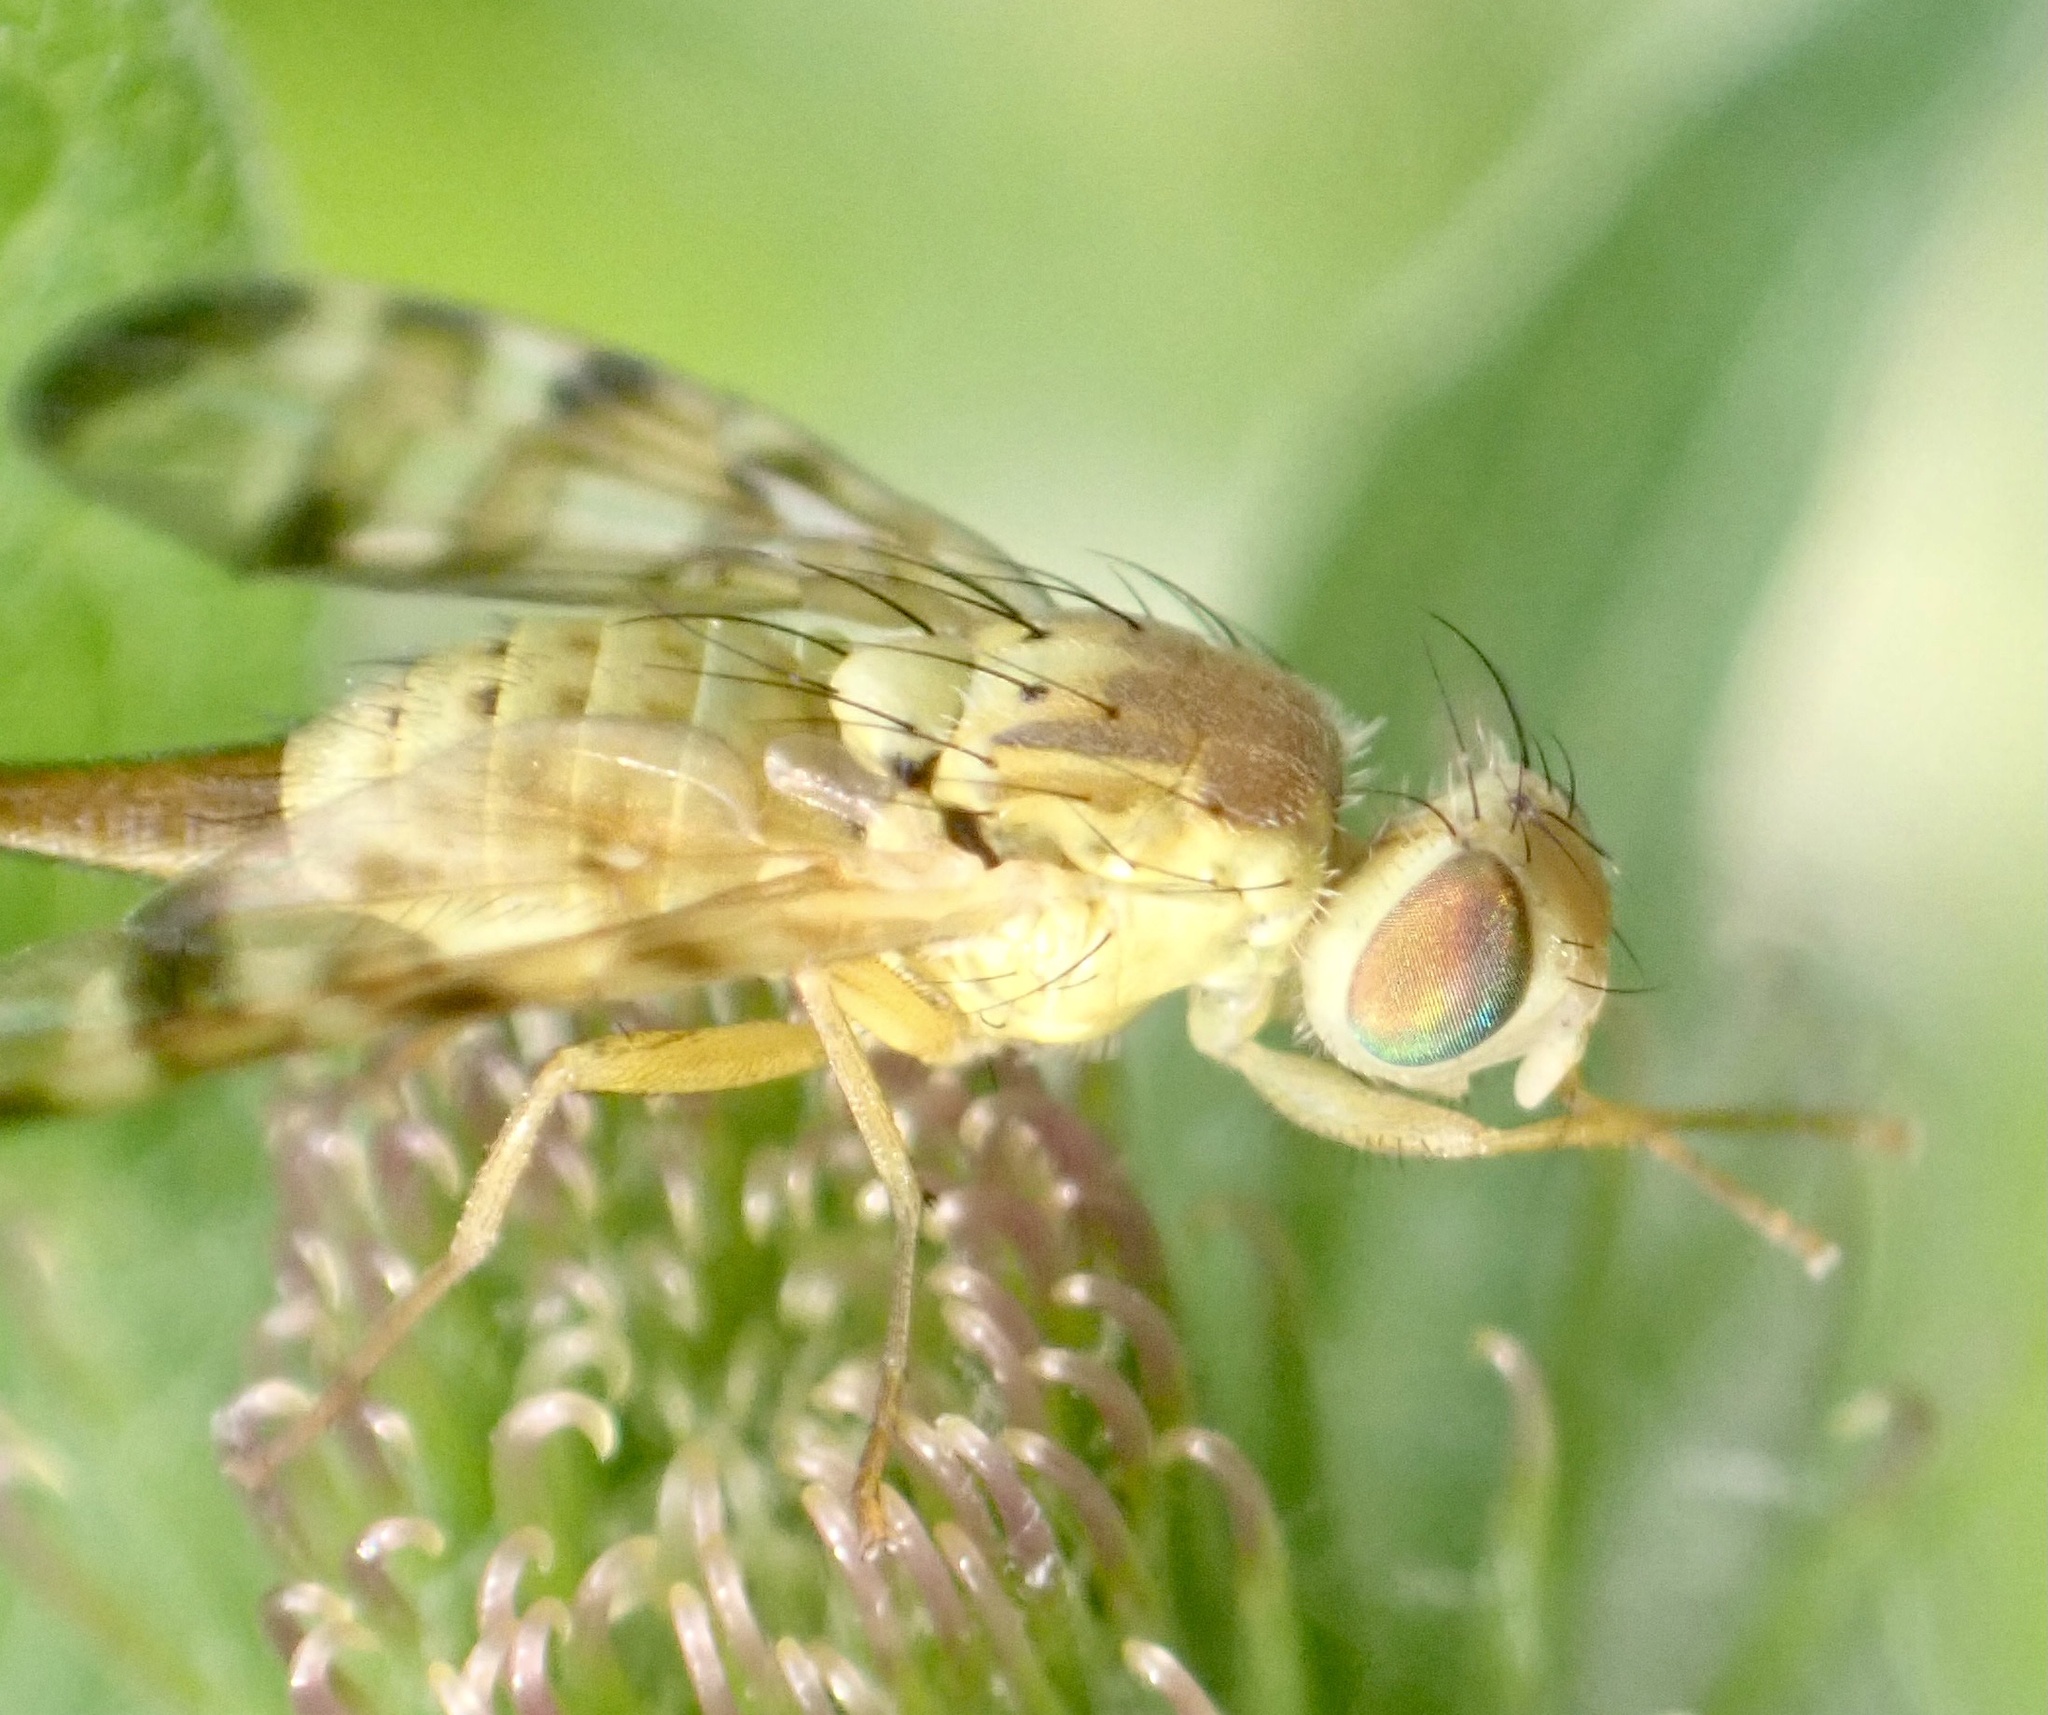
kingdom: Animalia
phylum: Arthropoda
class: Insecta
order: Diptera
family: Tephritidae
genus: Terellia
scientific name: Terellia tussilaginis
